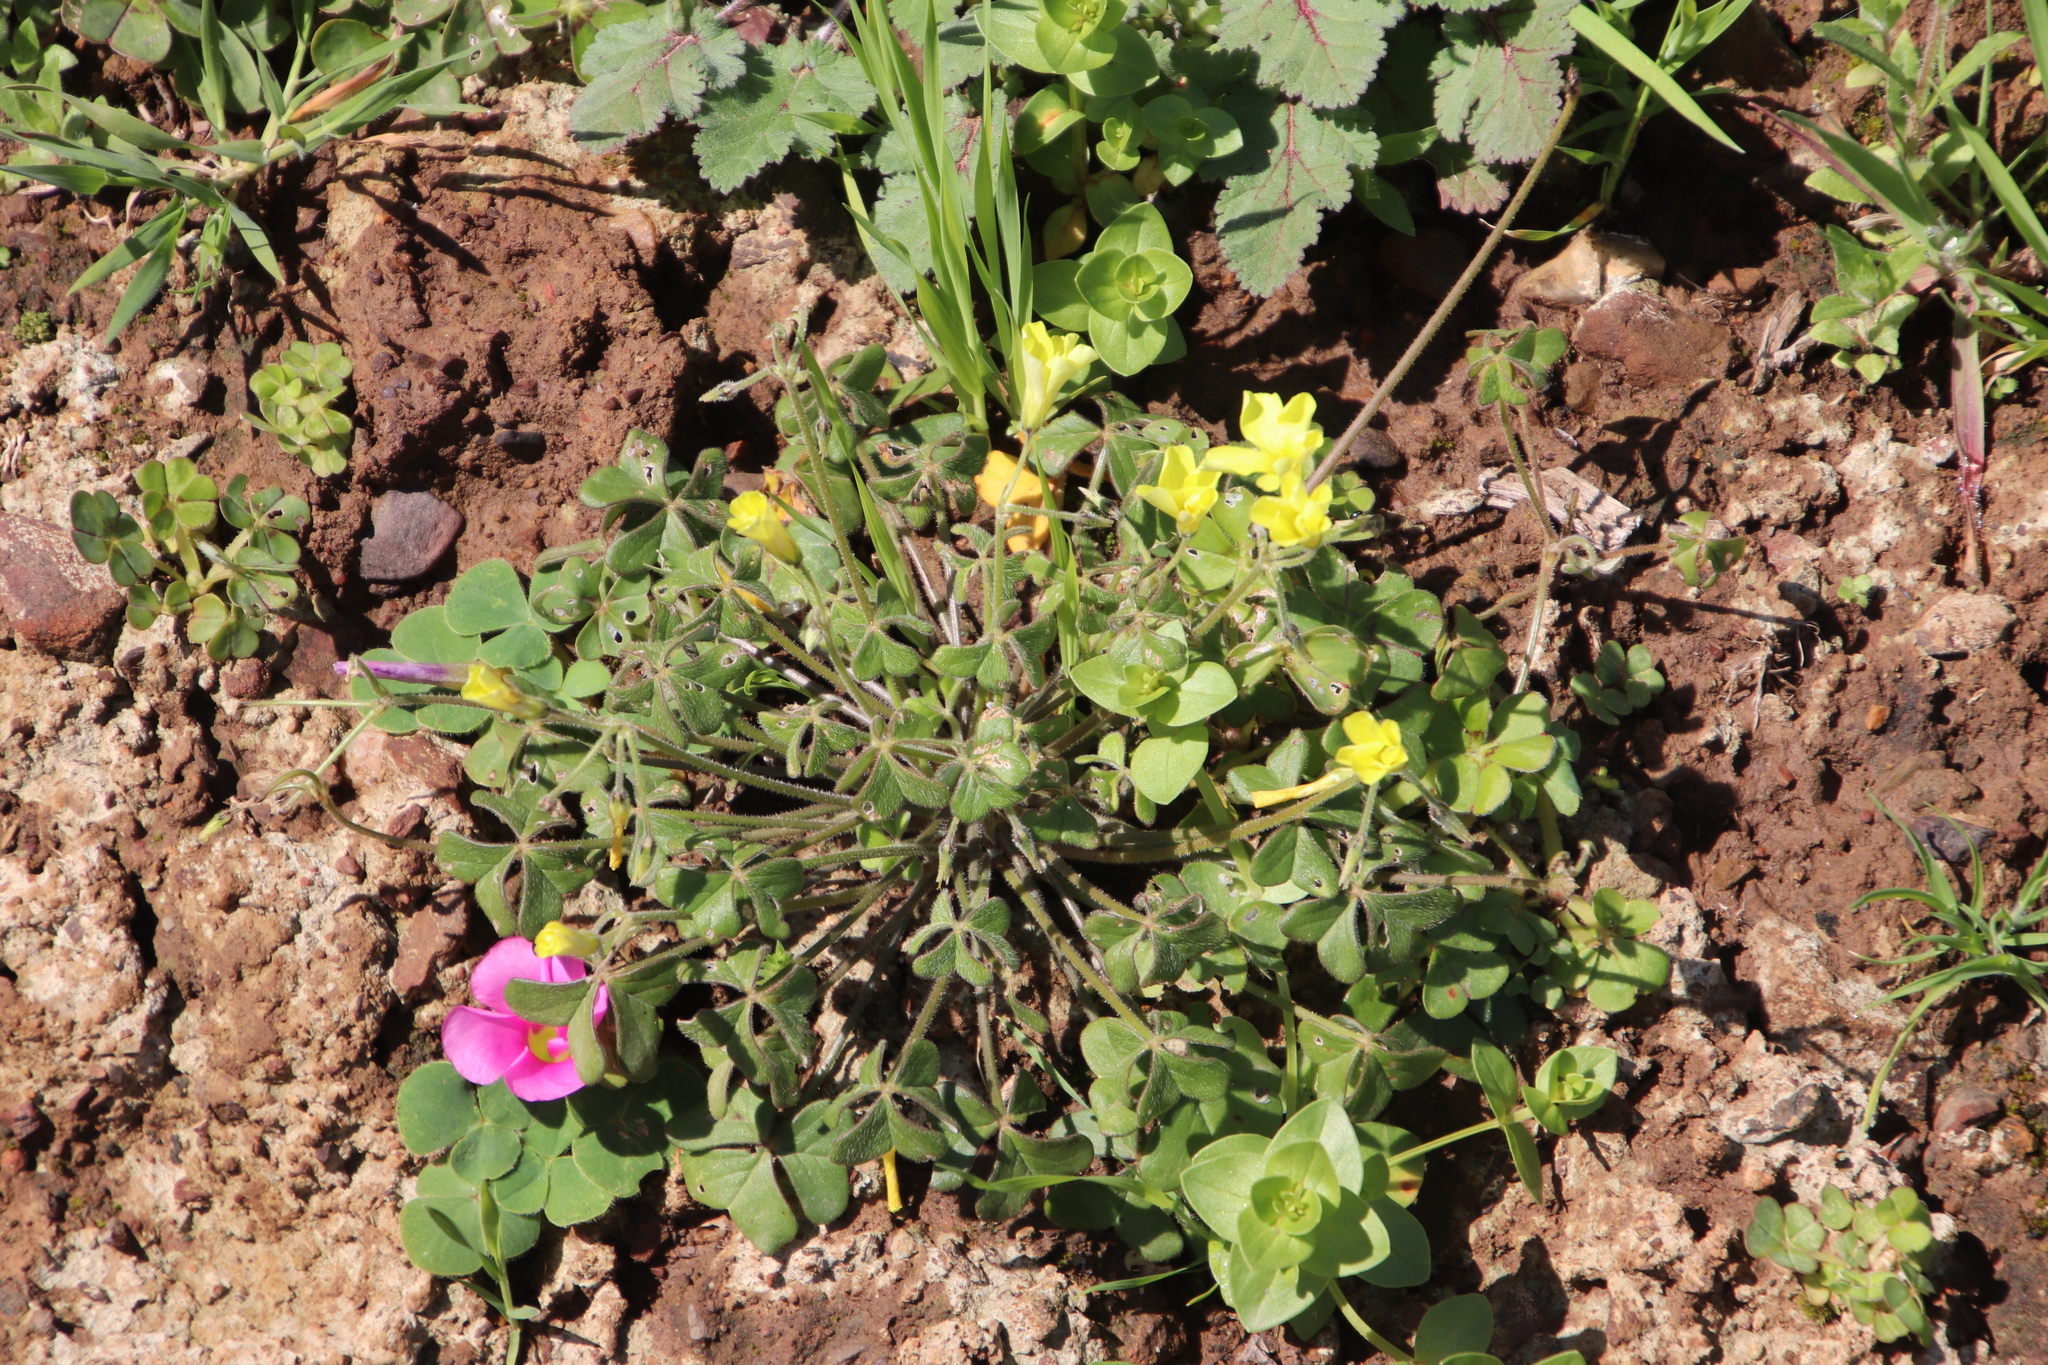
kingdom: Plantae
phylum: Tracheophyta
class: Magnoliopsida
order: Oxalidales
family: Oxalidaceae
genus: Oxalis
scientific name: Oxalis pes-caprae
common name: Bermuda-buttercup
